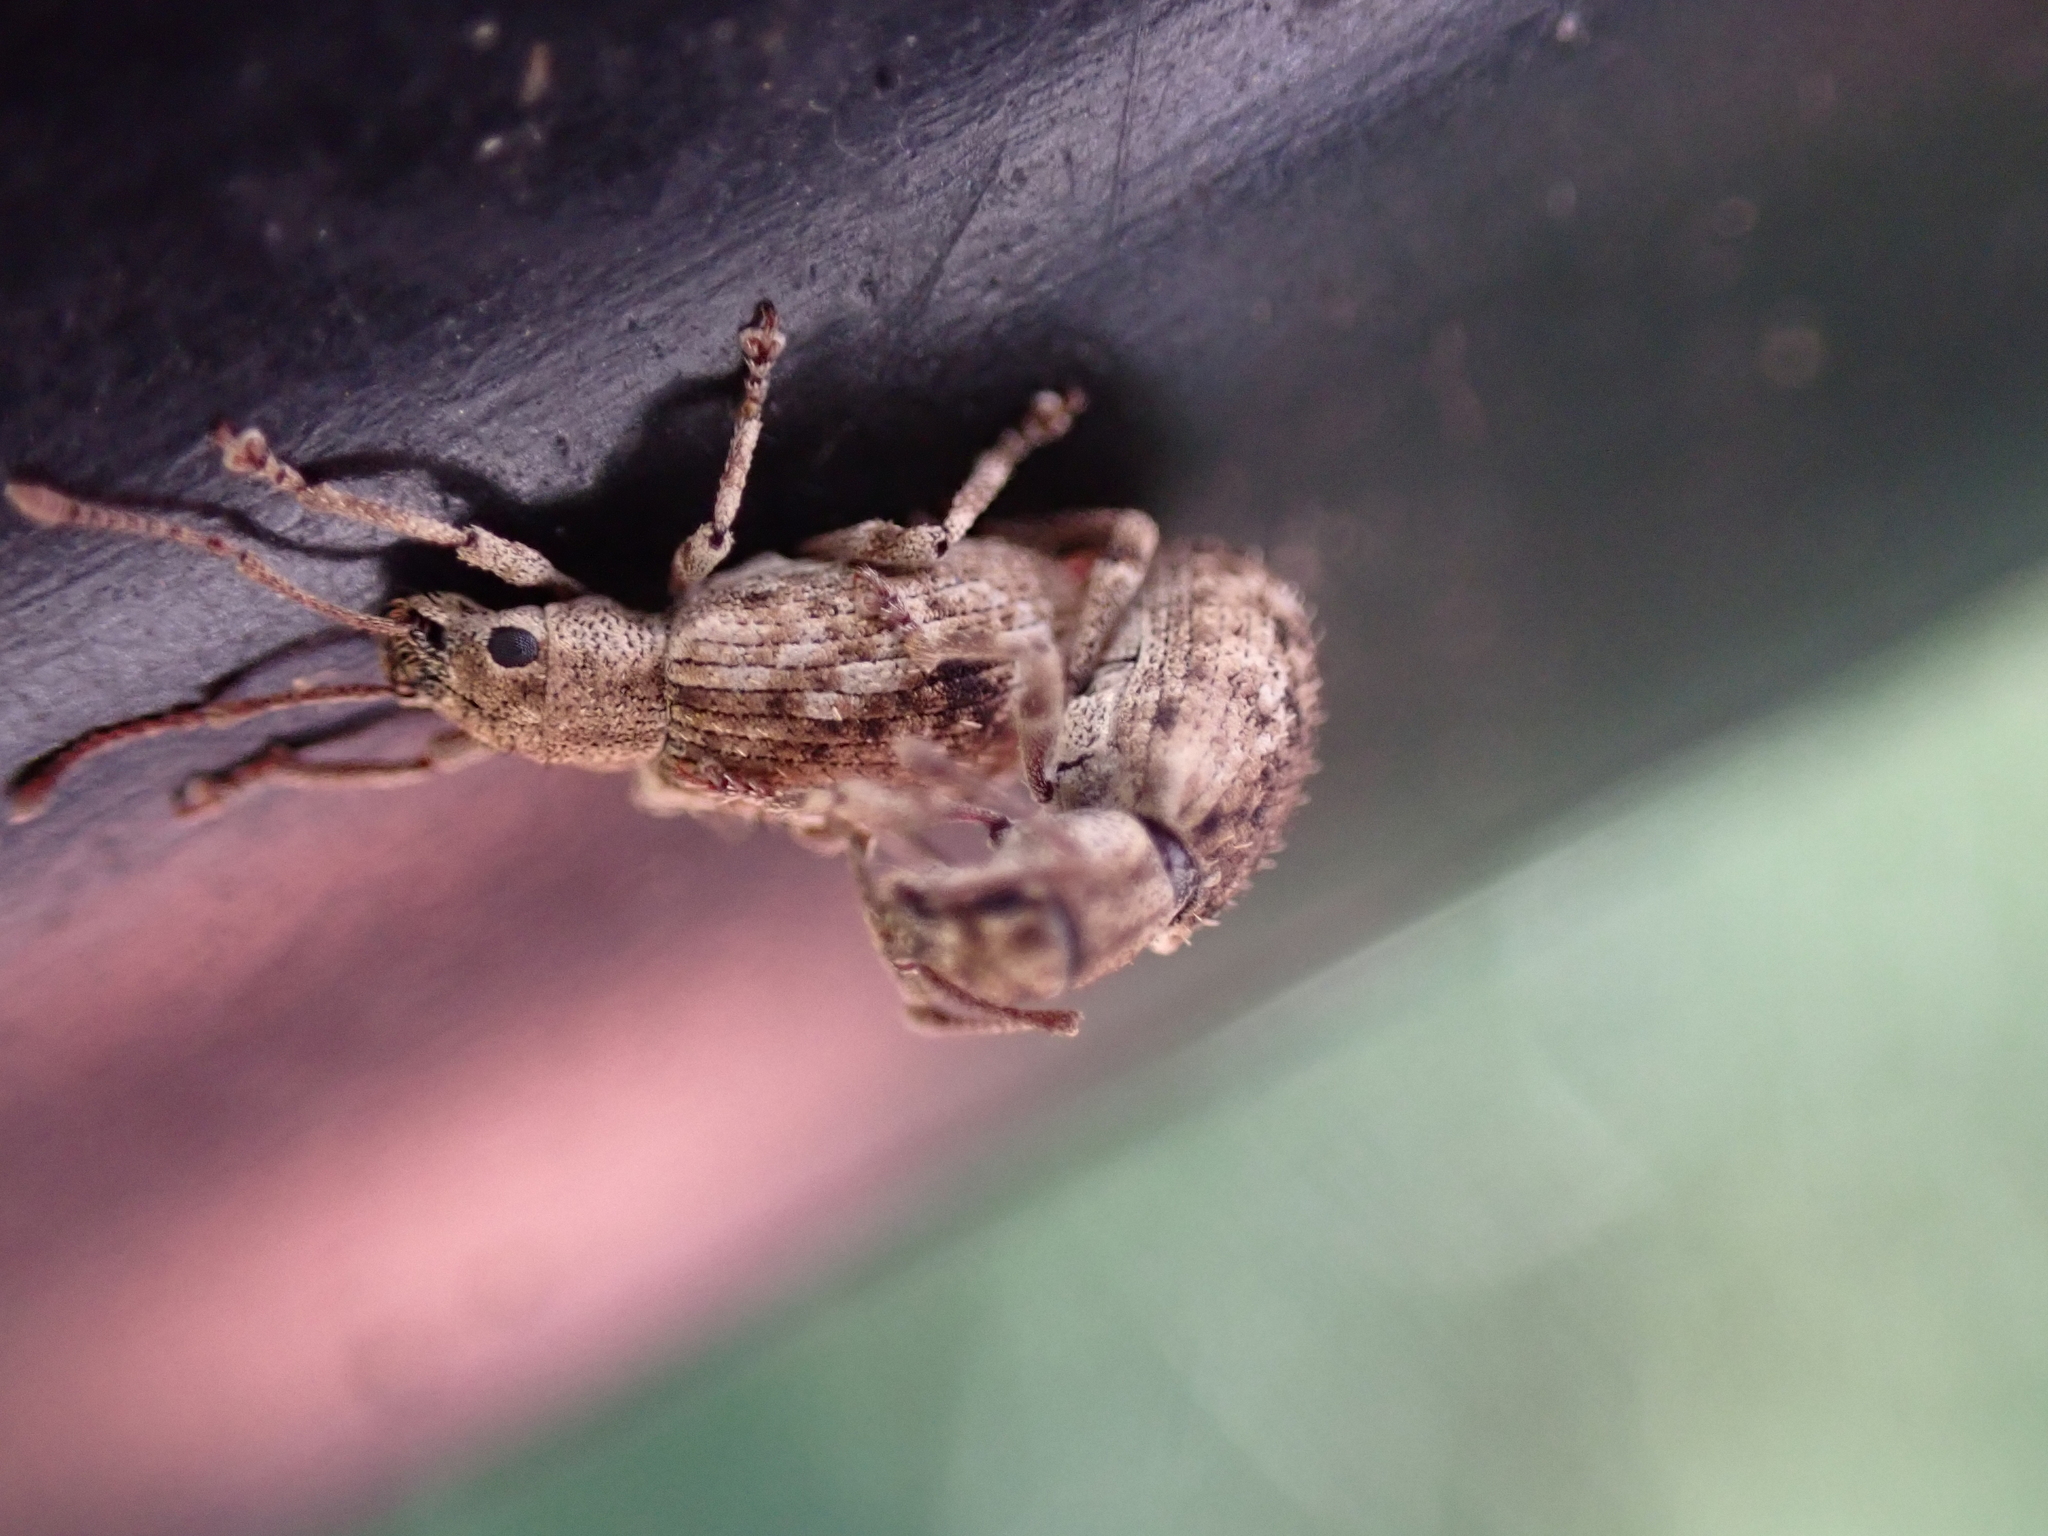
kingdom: Animalia
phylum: Arthropoda
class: Insecta
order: Coleoptera
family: Curculionidae
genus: Pseudoedophrys
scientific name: Pseudoedophrys hilleri
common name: Weevil
